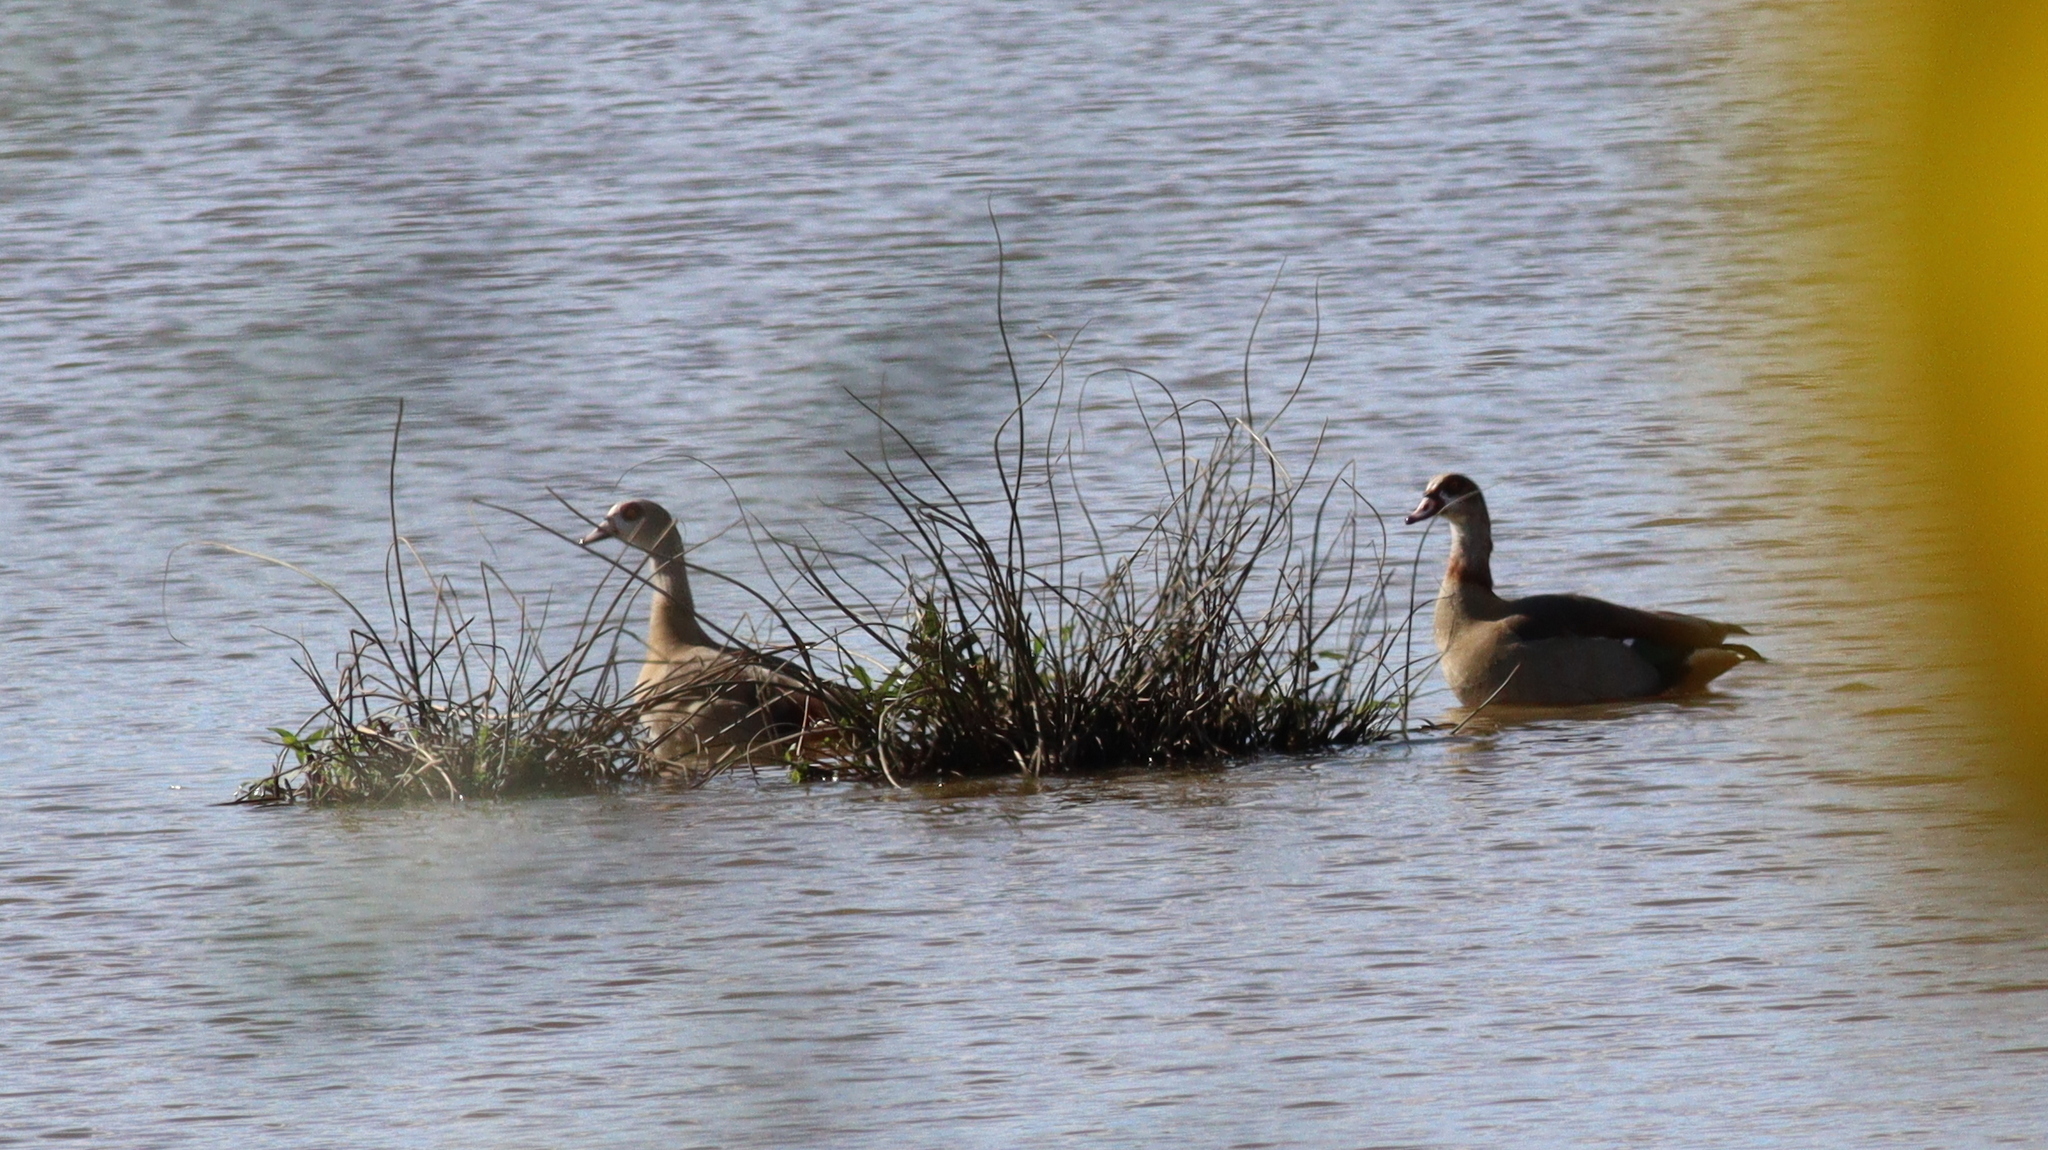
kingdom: Animalia
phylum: Chordata
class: Aves
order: Anseriformes
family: Anatidae
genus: Alopochen
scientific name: Alopochen aegyptiaca
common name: Egyptian goose
